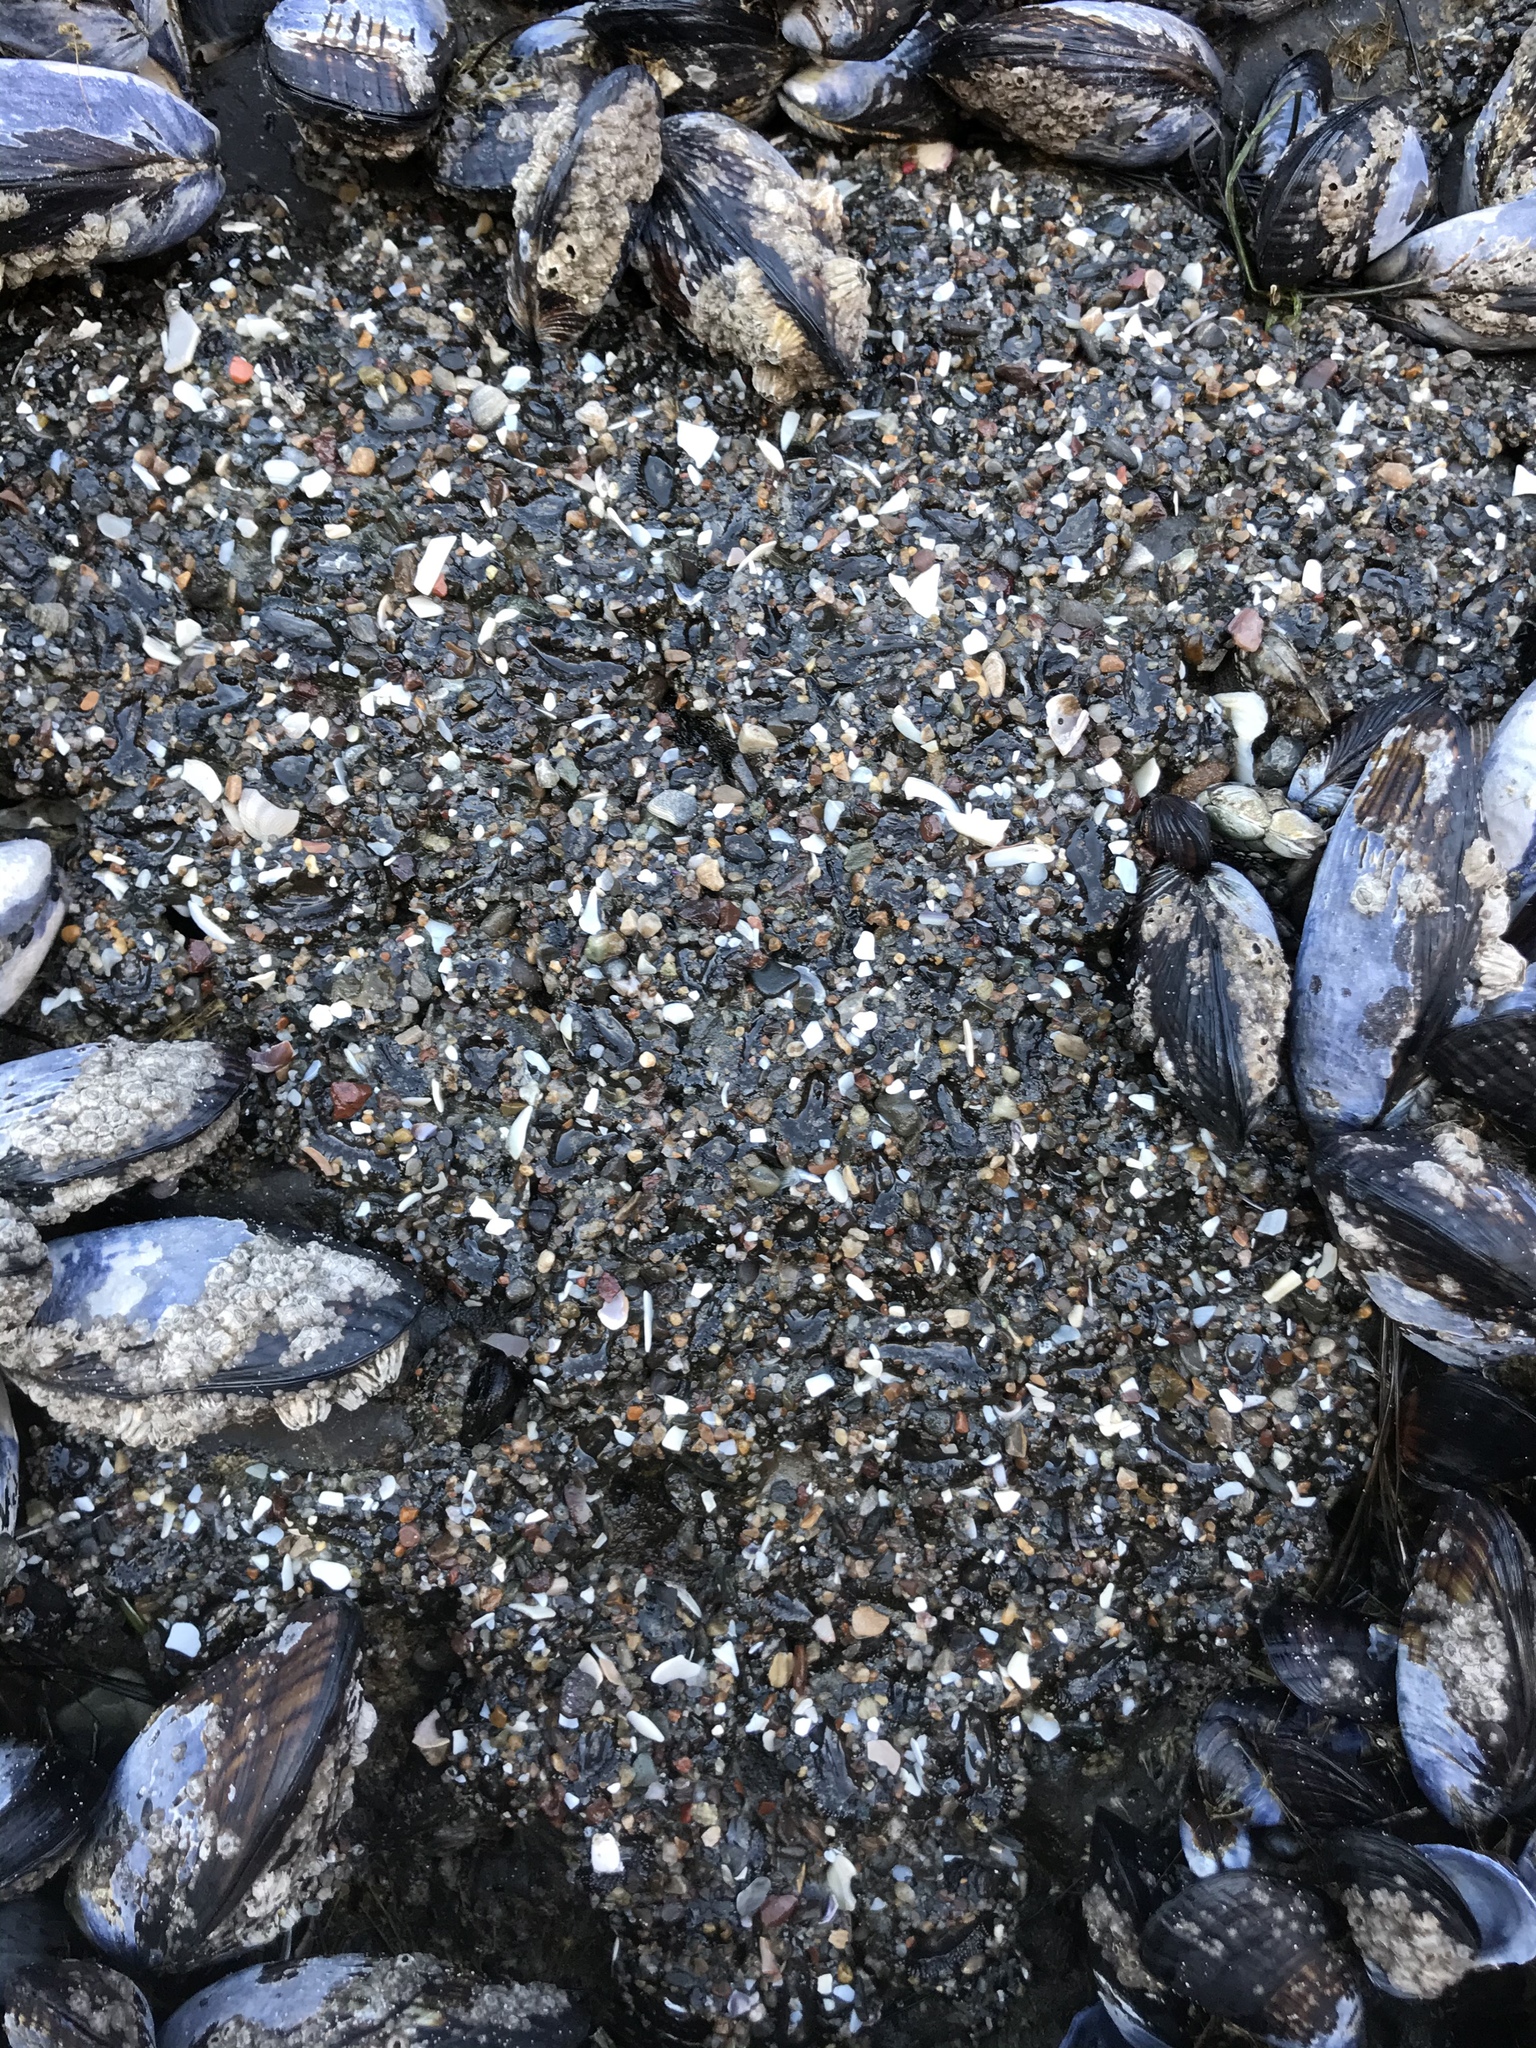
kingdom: Animalia
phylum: Cnidaria
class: Anthozoa
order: Actiniaria
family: Actiniidae
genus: Anthopleura
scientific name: Anthopleura elegantissima
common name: Clonal anemone
